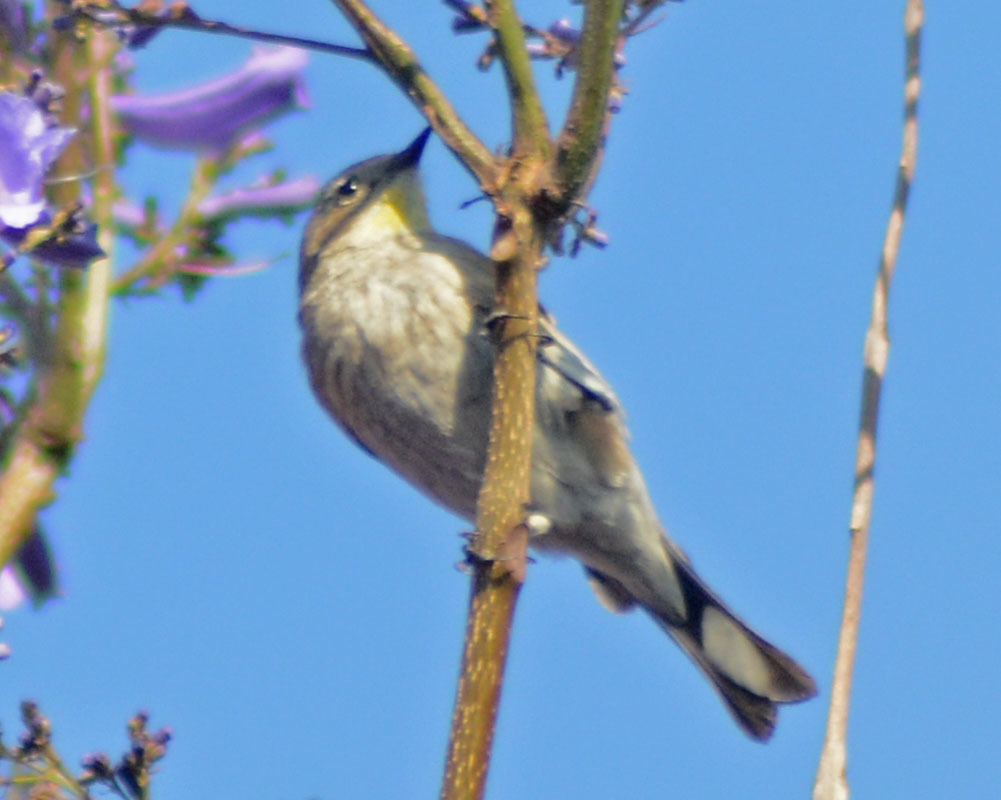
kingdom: Animalia
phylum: Chordata
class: Aves
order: Passeriformes
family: Parulidae
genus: Setophaga
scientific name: Setophaga coronata
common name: Myrtle warbler
